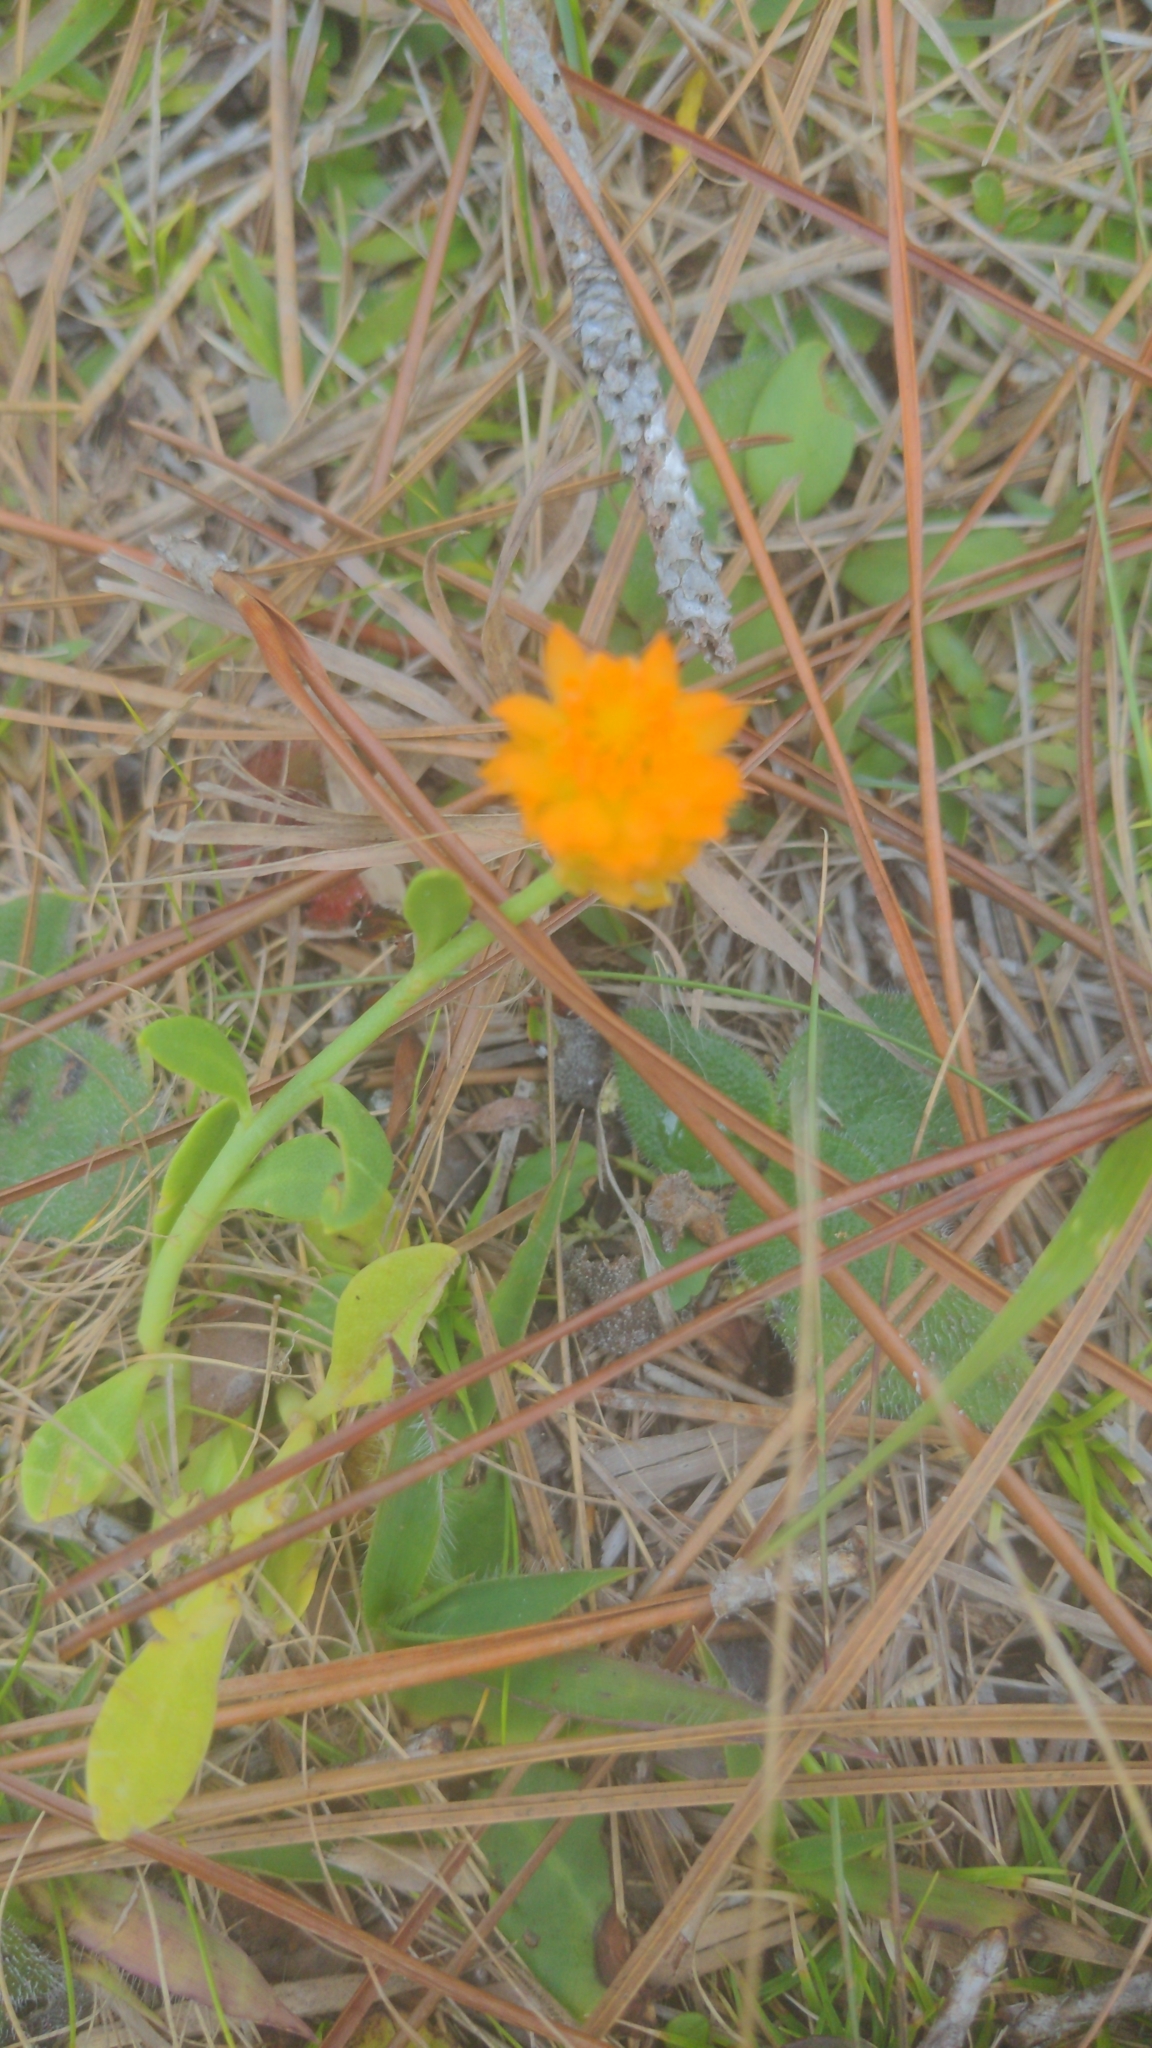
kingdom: Plantae
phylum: Tracheophyta
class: Magnoliopsida
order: Fabales
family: Polygalaceae
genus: Polygala
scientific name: Polygala lutea
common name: Orange milkwort
